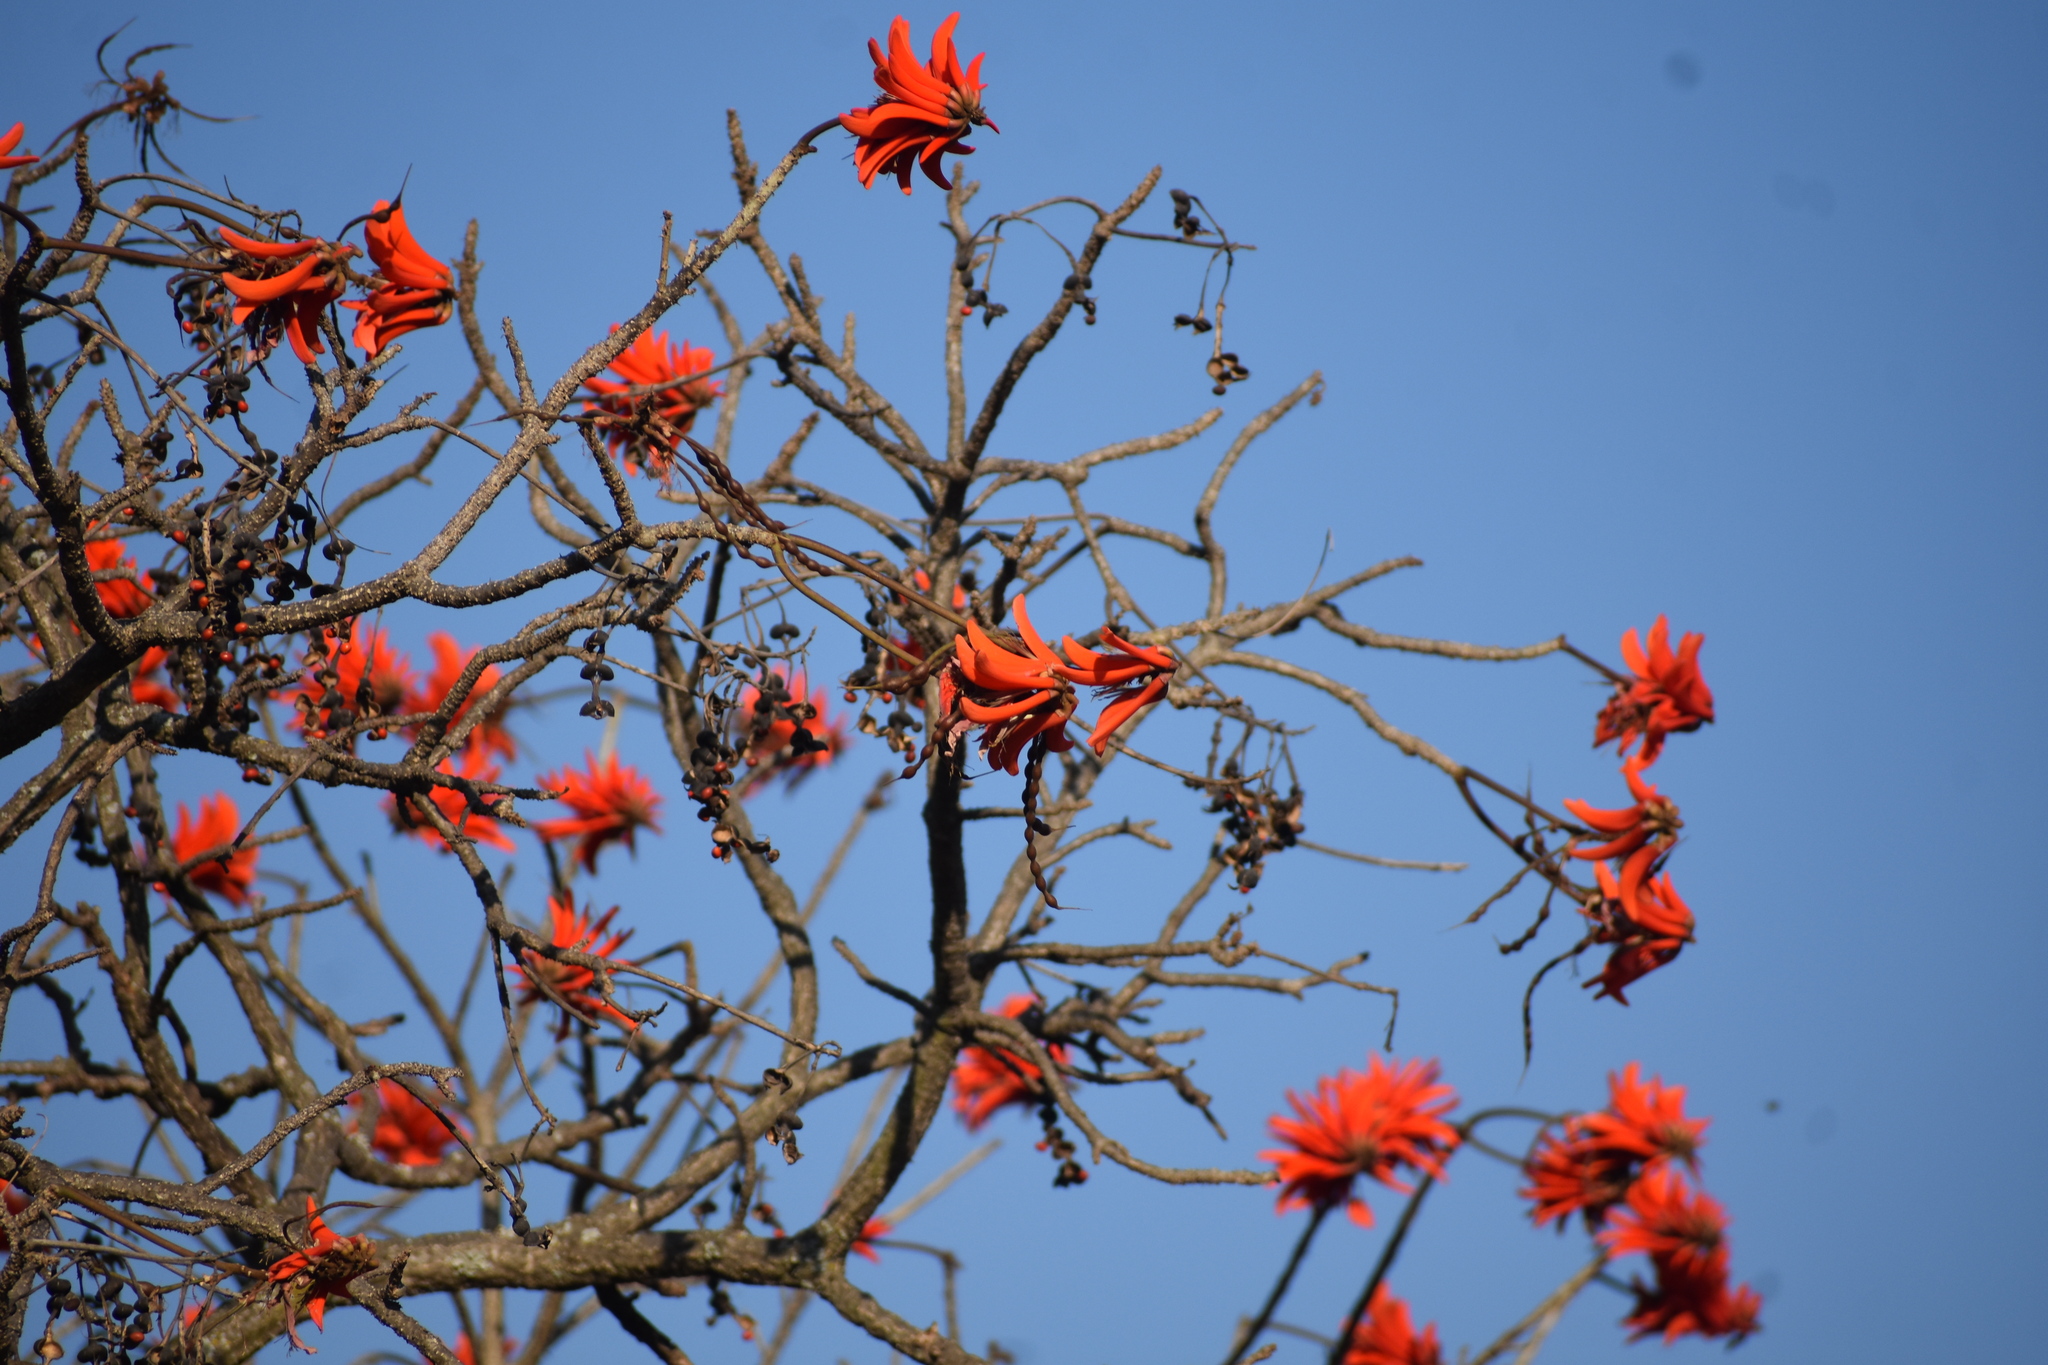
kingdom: Plantae
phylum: Tracheophyta
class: Magnoliopsida
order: Fabales
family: Fabaceae
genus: Erythrina
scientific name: Erythrina lysistemon
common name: Common coral tree
